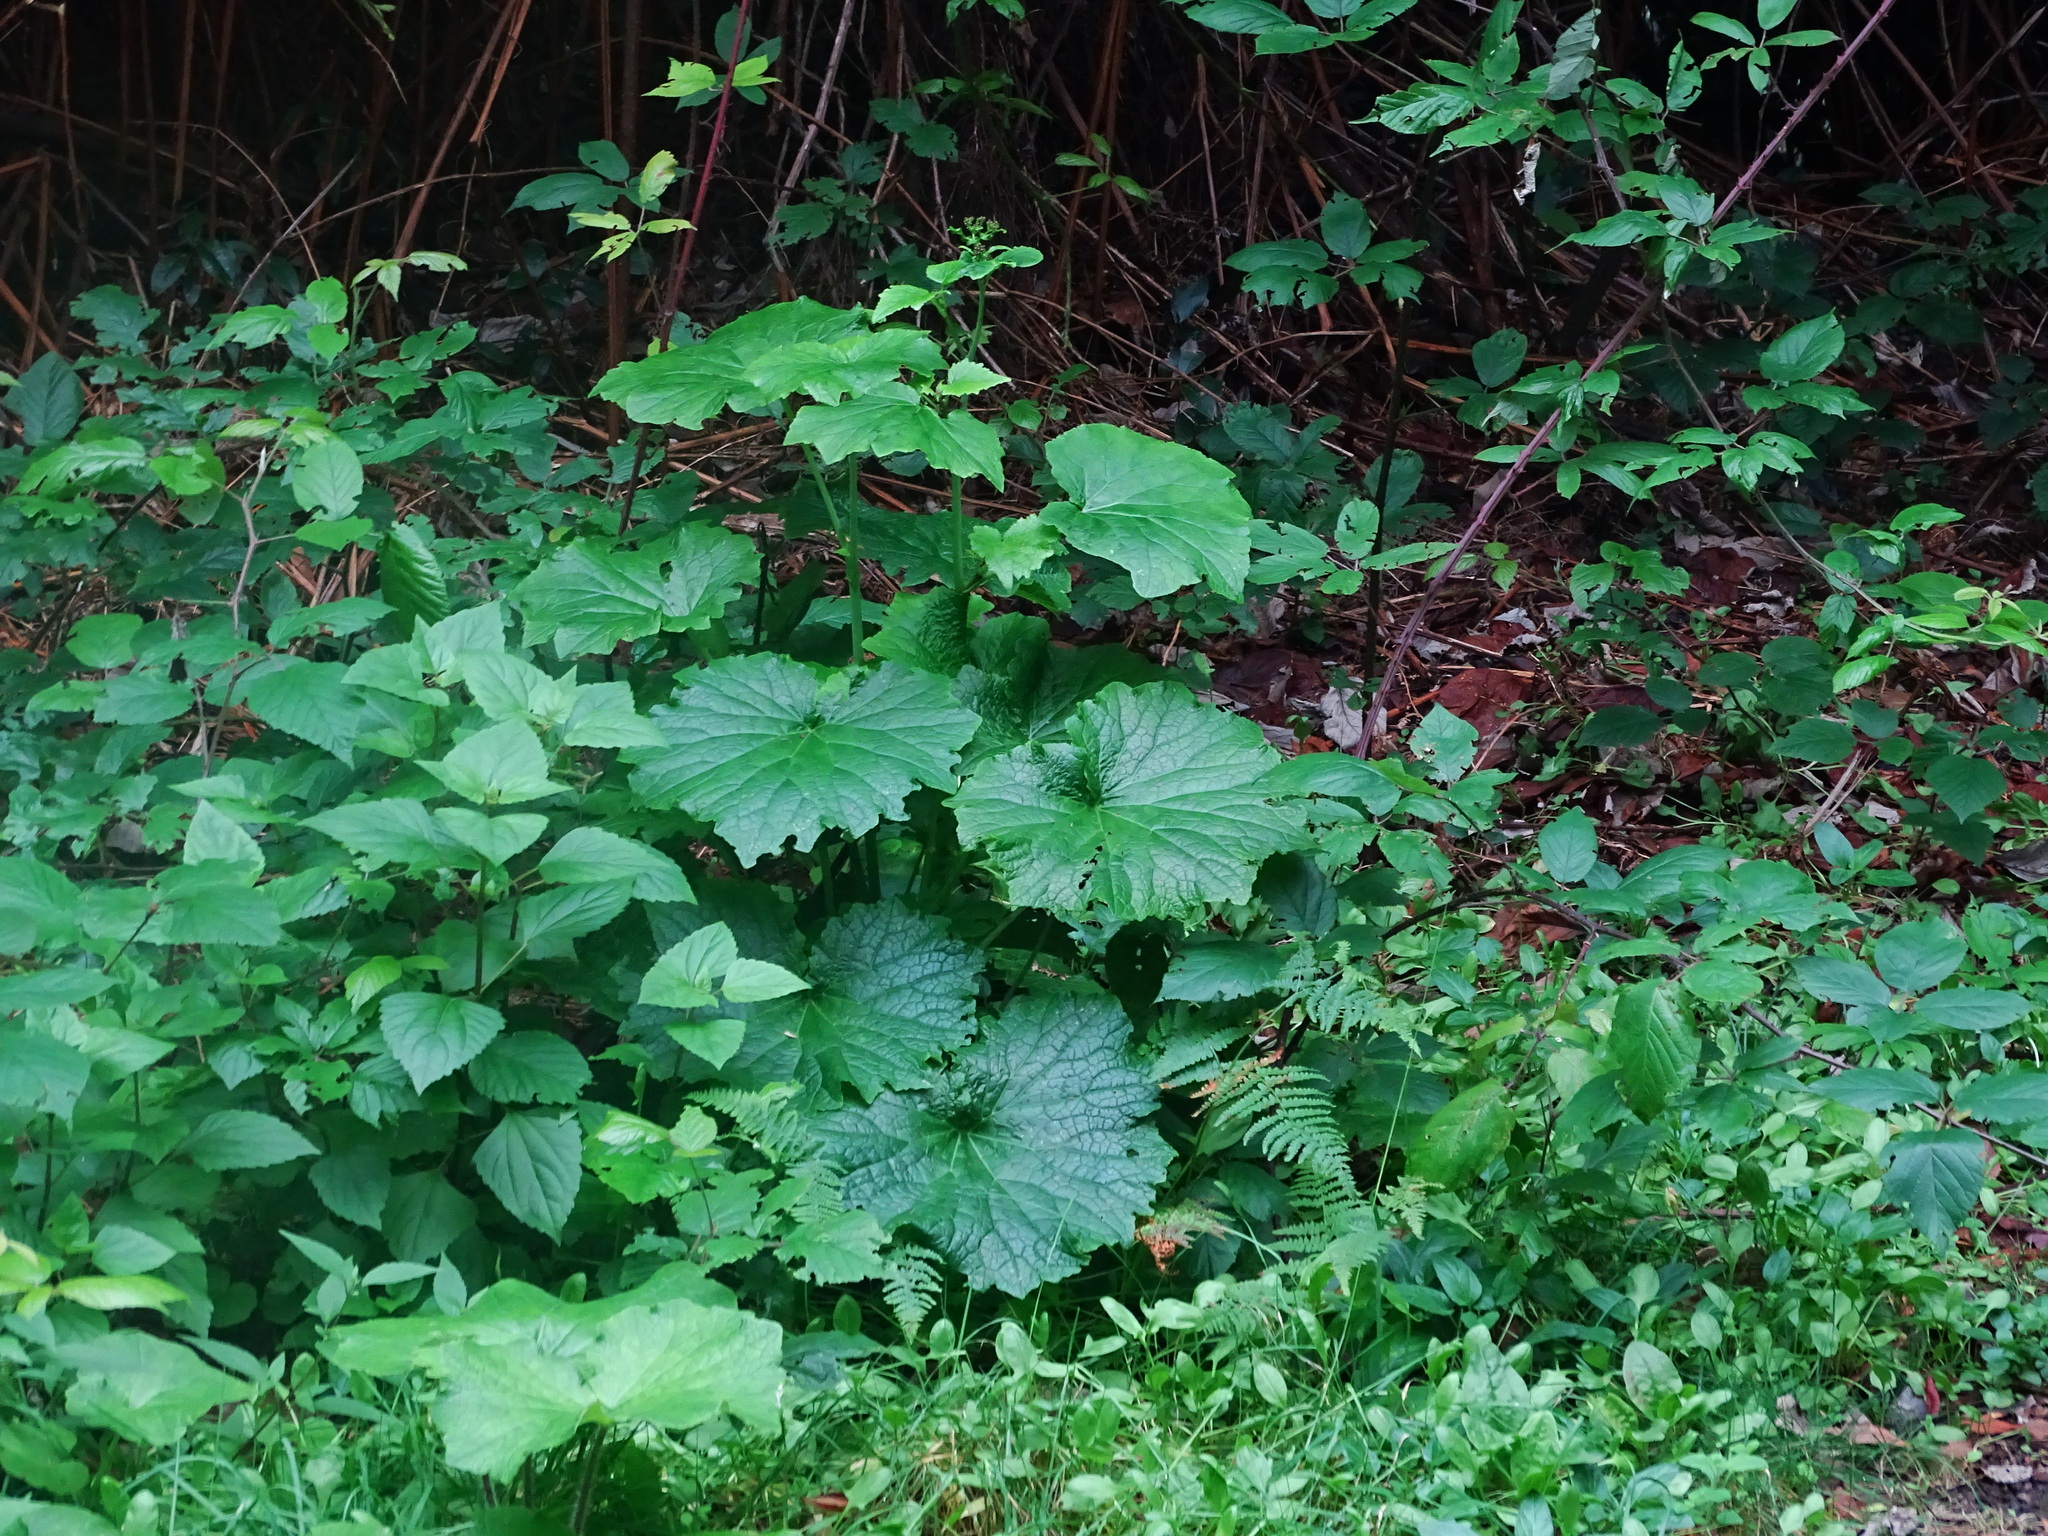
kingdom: Plantae
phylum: Tracheophyta
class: Magnoliopsida
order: Asterales
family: Asteraceae
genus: Pericallis
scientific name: Pericallis papyracea
